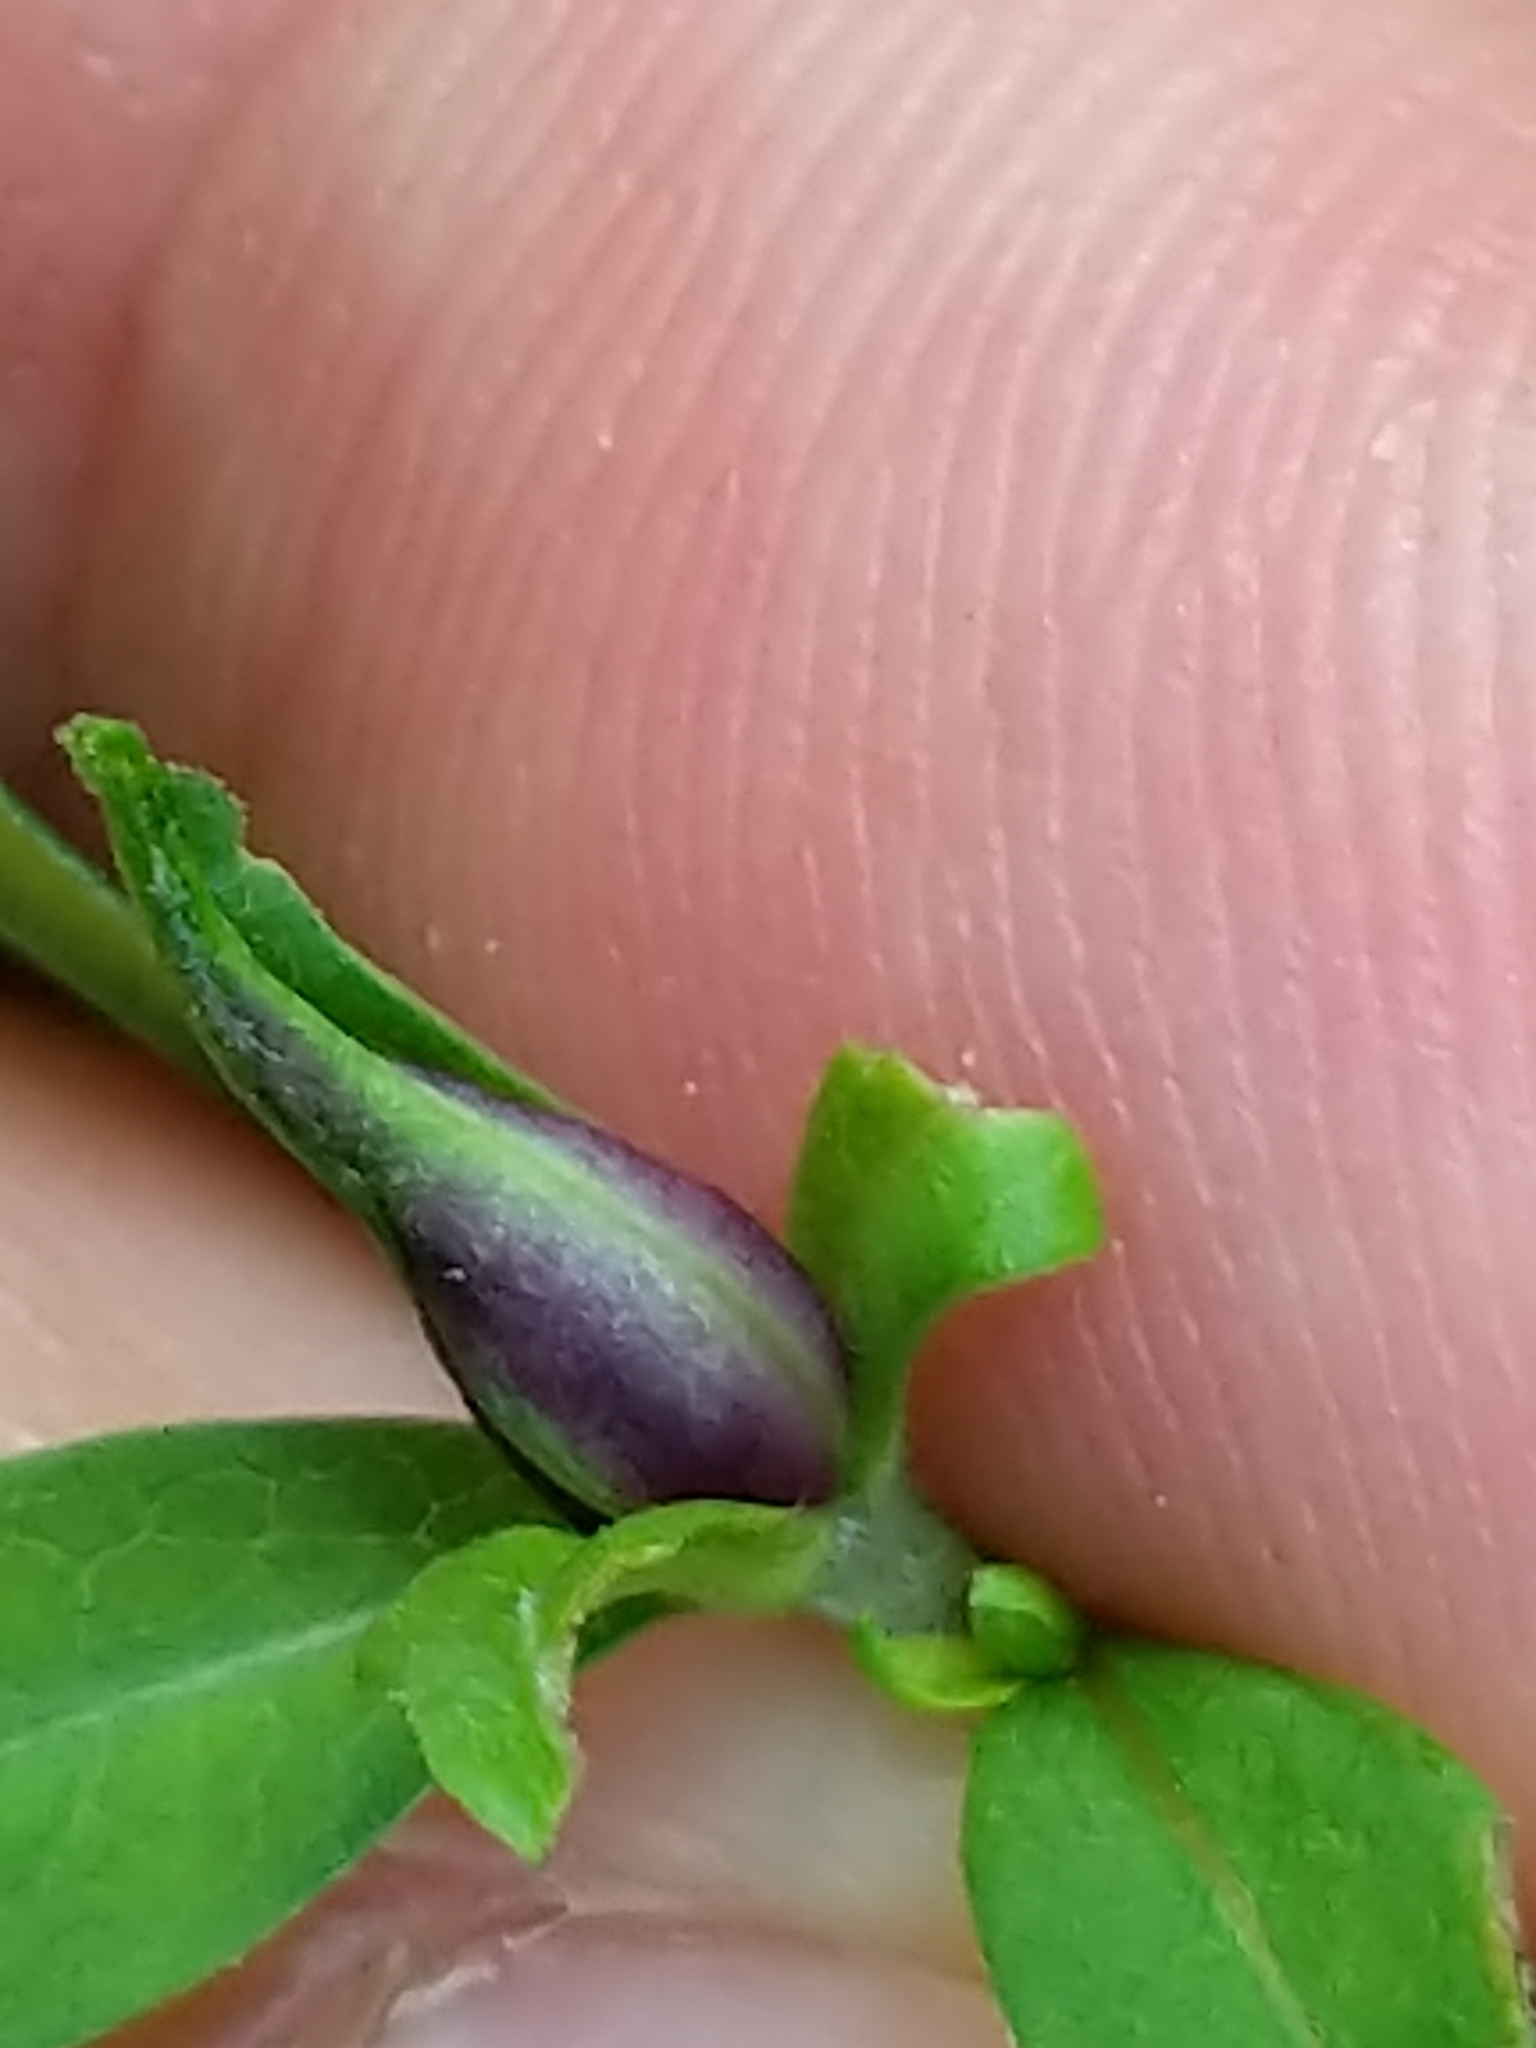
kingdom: Animalia
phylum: Arthropoda
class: Insecta
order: Diptera
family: Cecidomyiidae
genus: Asphondylia
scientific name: Asphondylia imbricata
